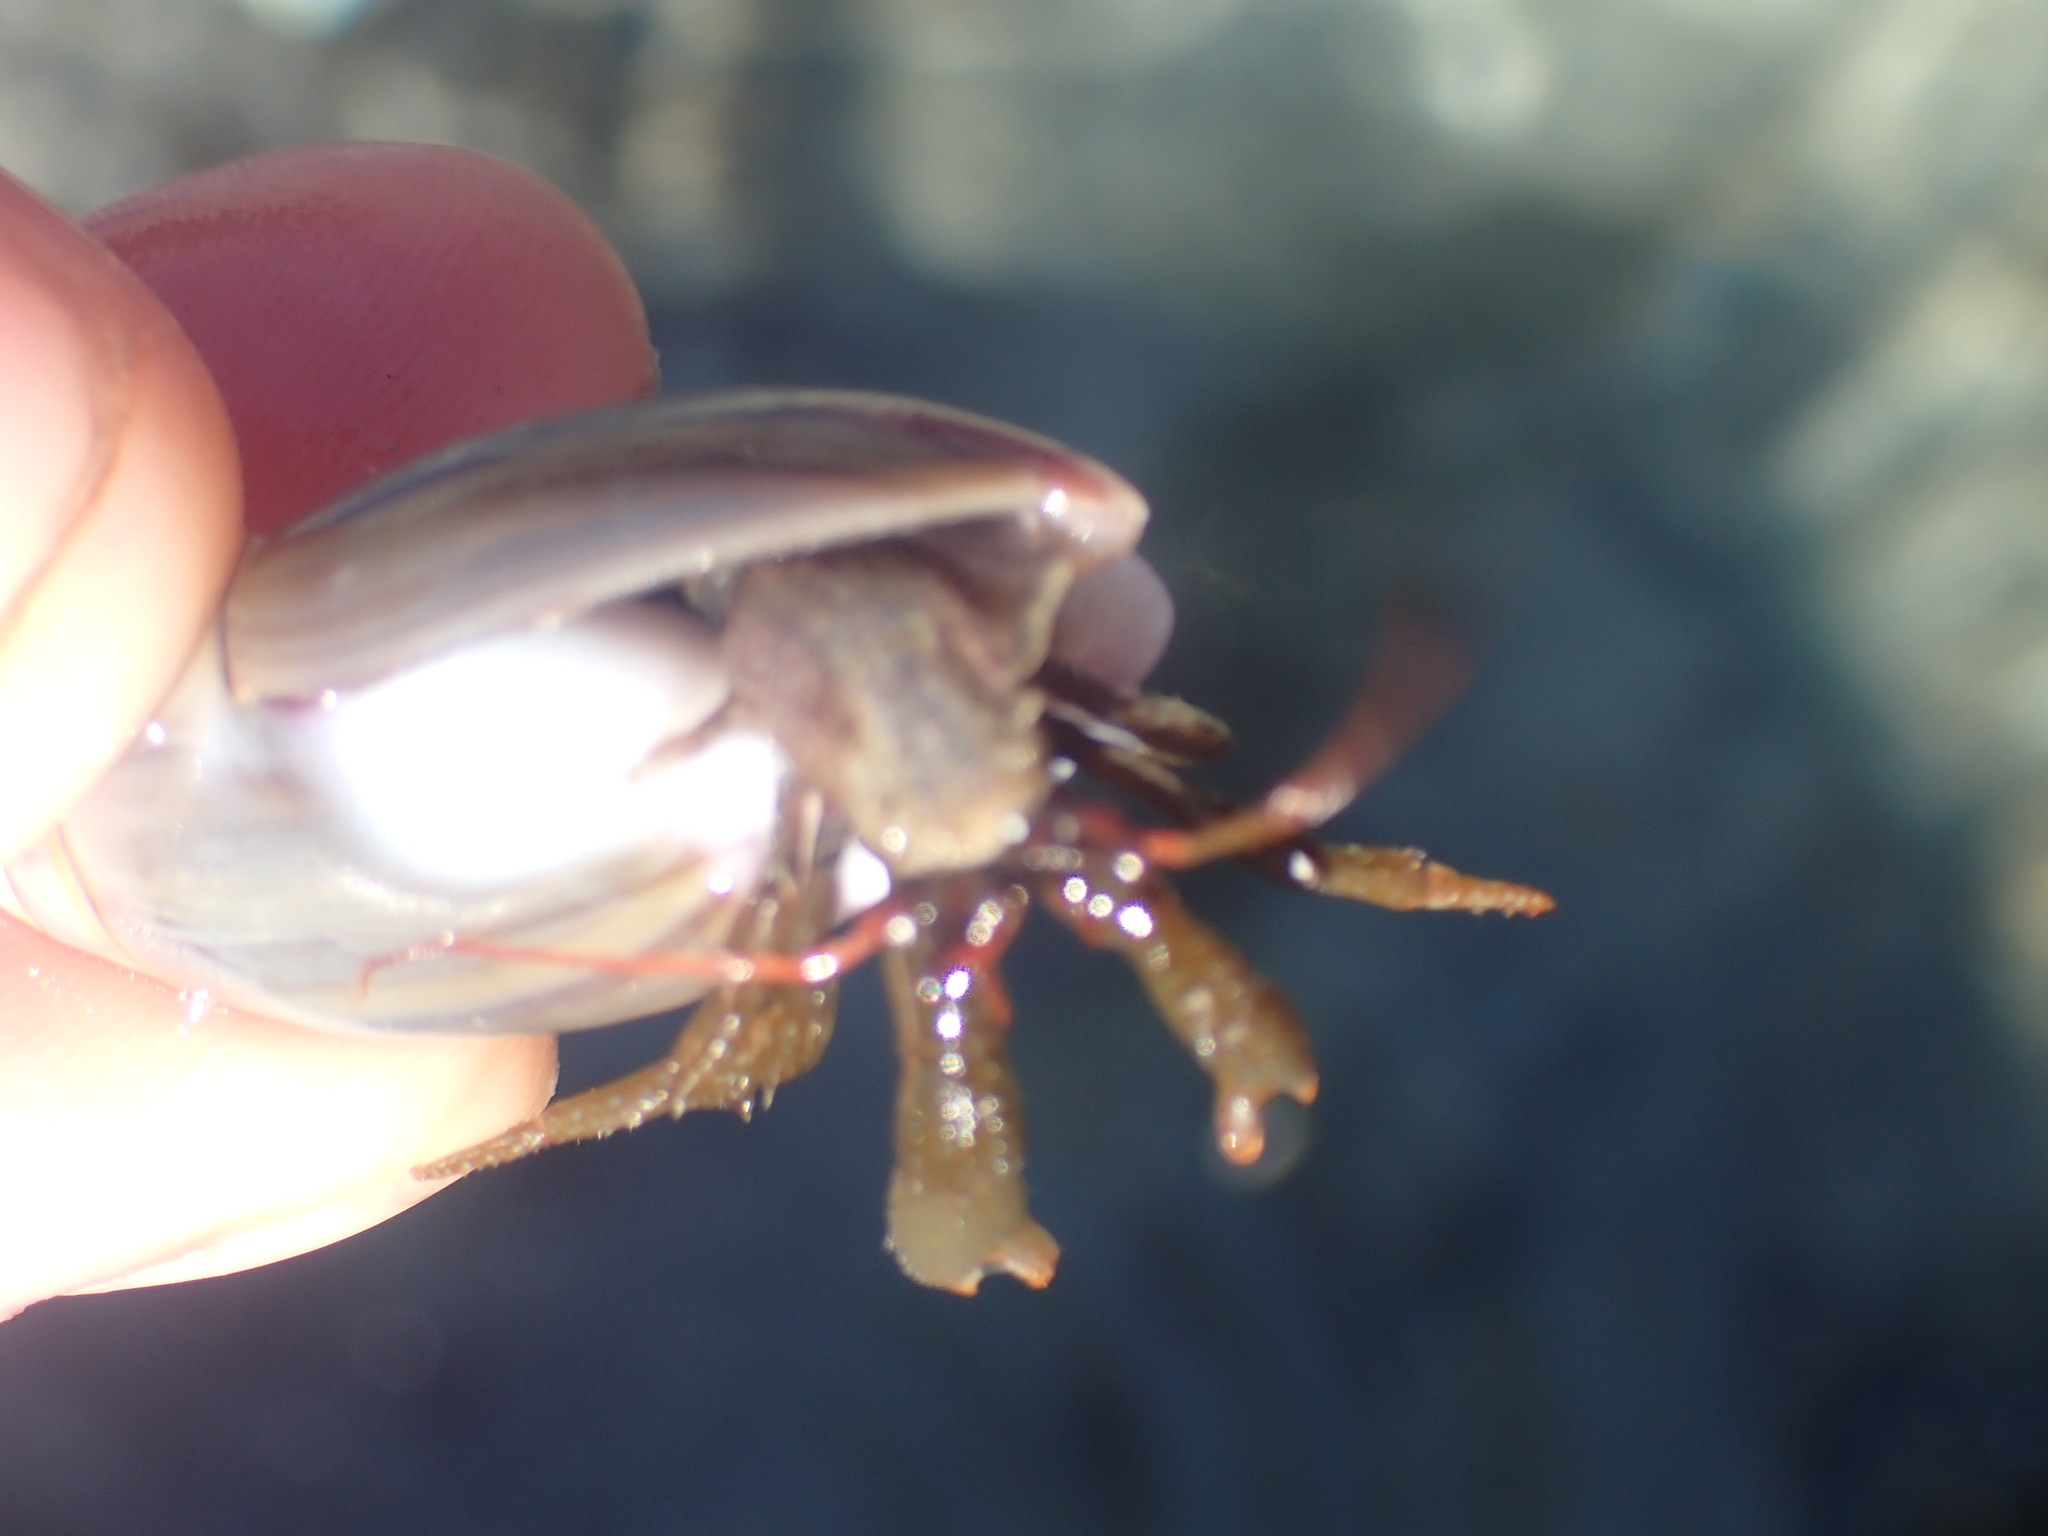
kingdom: Animalia
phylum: Arthropoda
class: Malacostraca
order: Decapoda
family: Paguridae
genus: Pagurus
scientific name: Pagurus granosimanus
